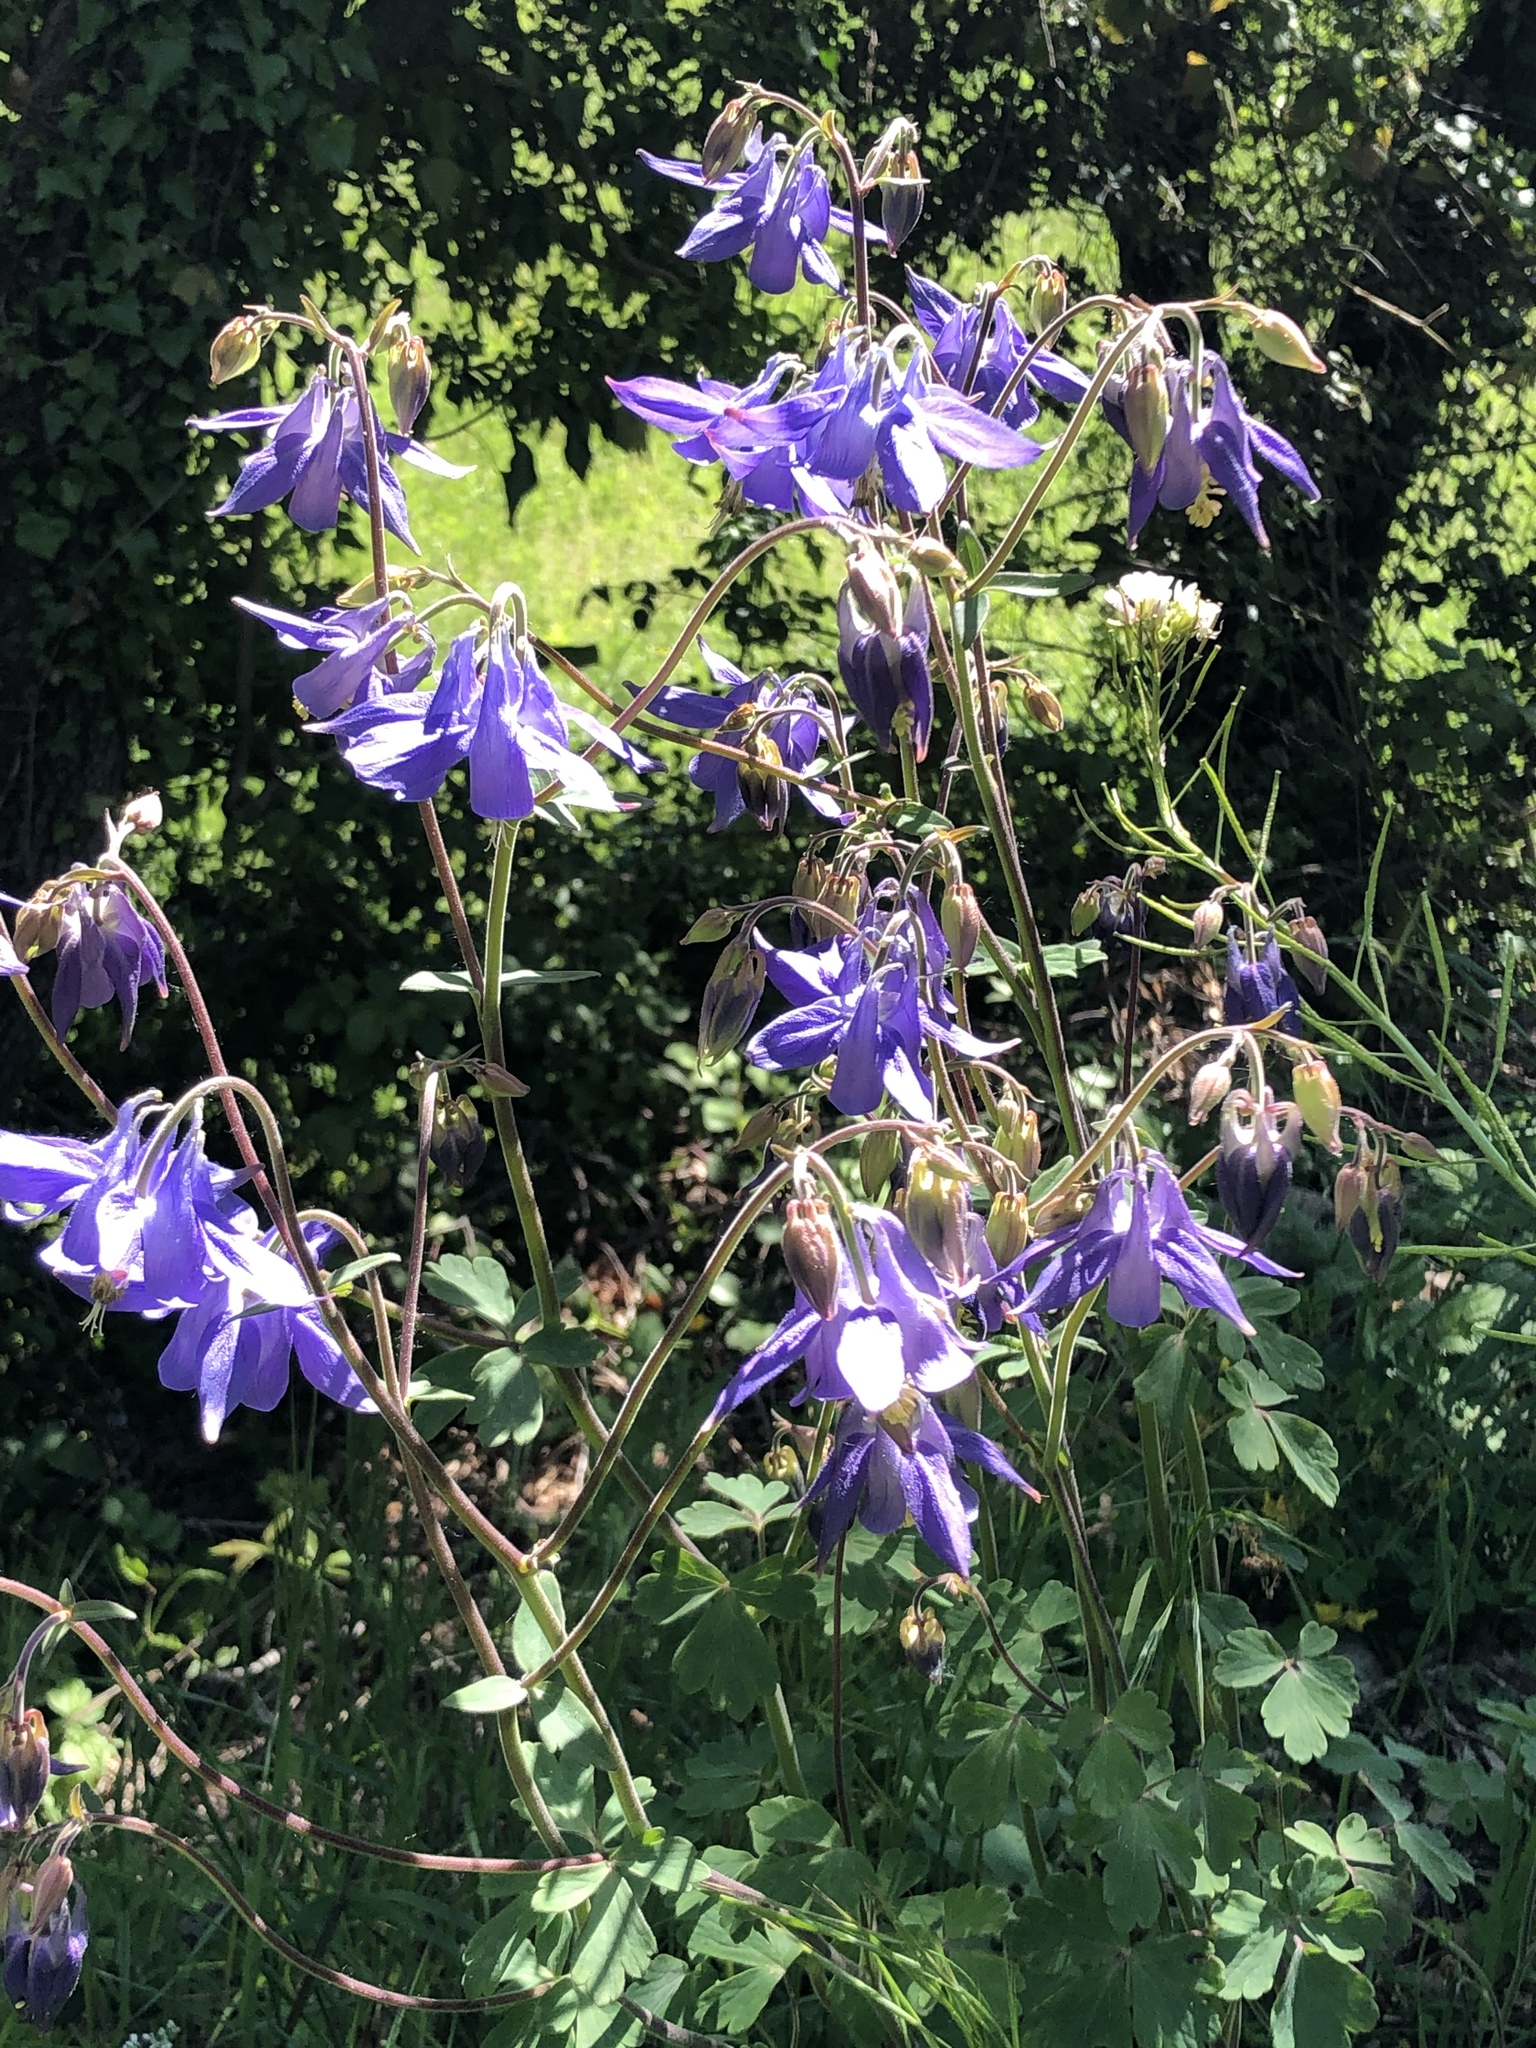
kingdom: Plantae
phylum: Tracheophyta
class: Magnoliopsida
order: Ranunculales
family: Ranunculaceae
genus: Aquilegia
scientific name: Aquilegia vulgaris
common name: Columbine
